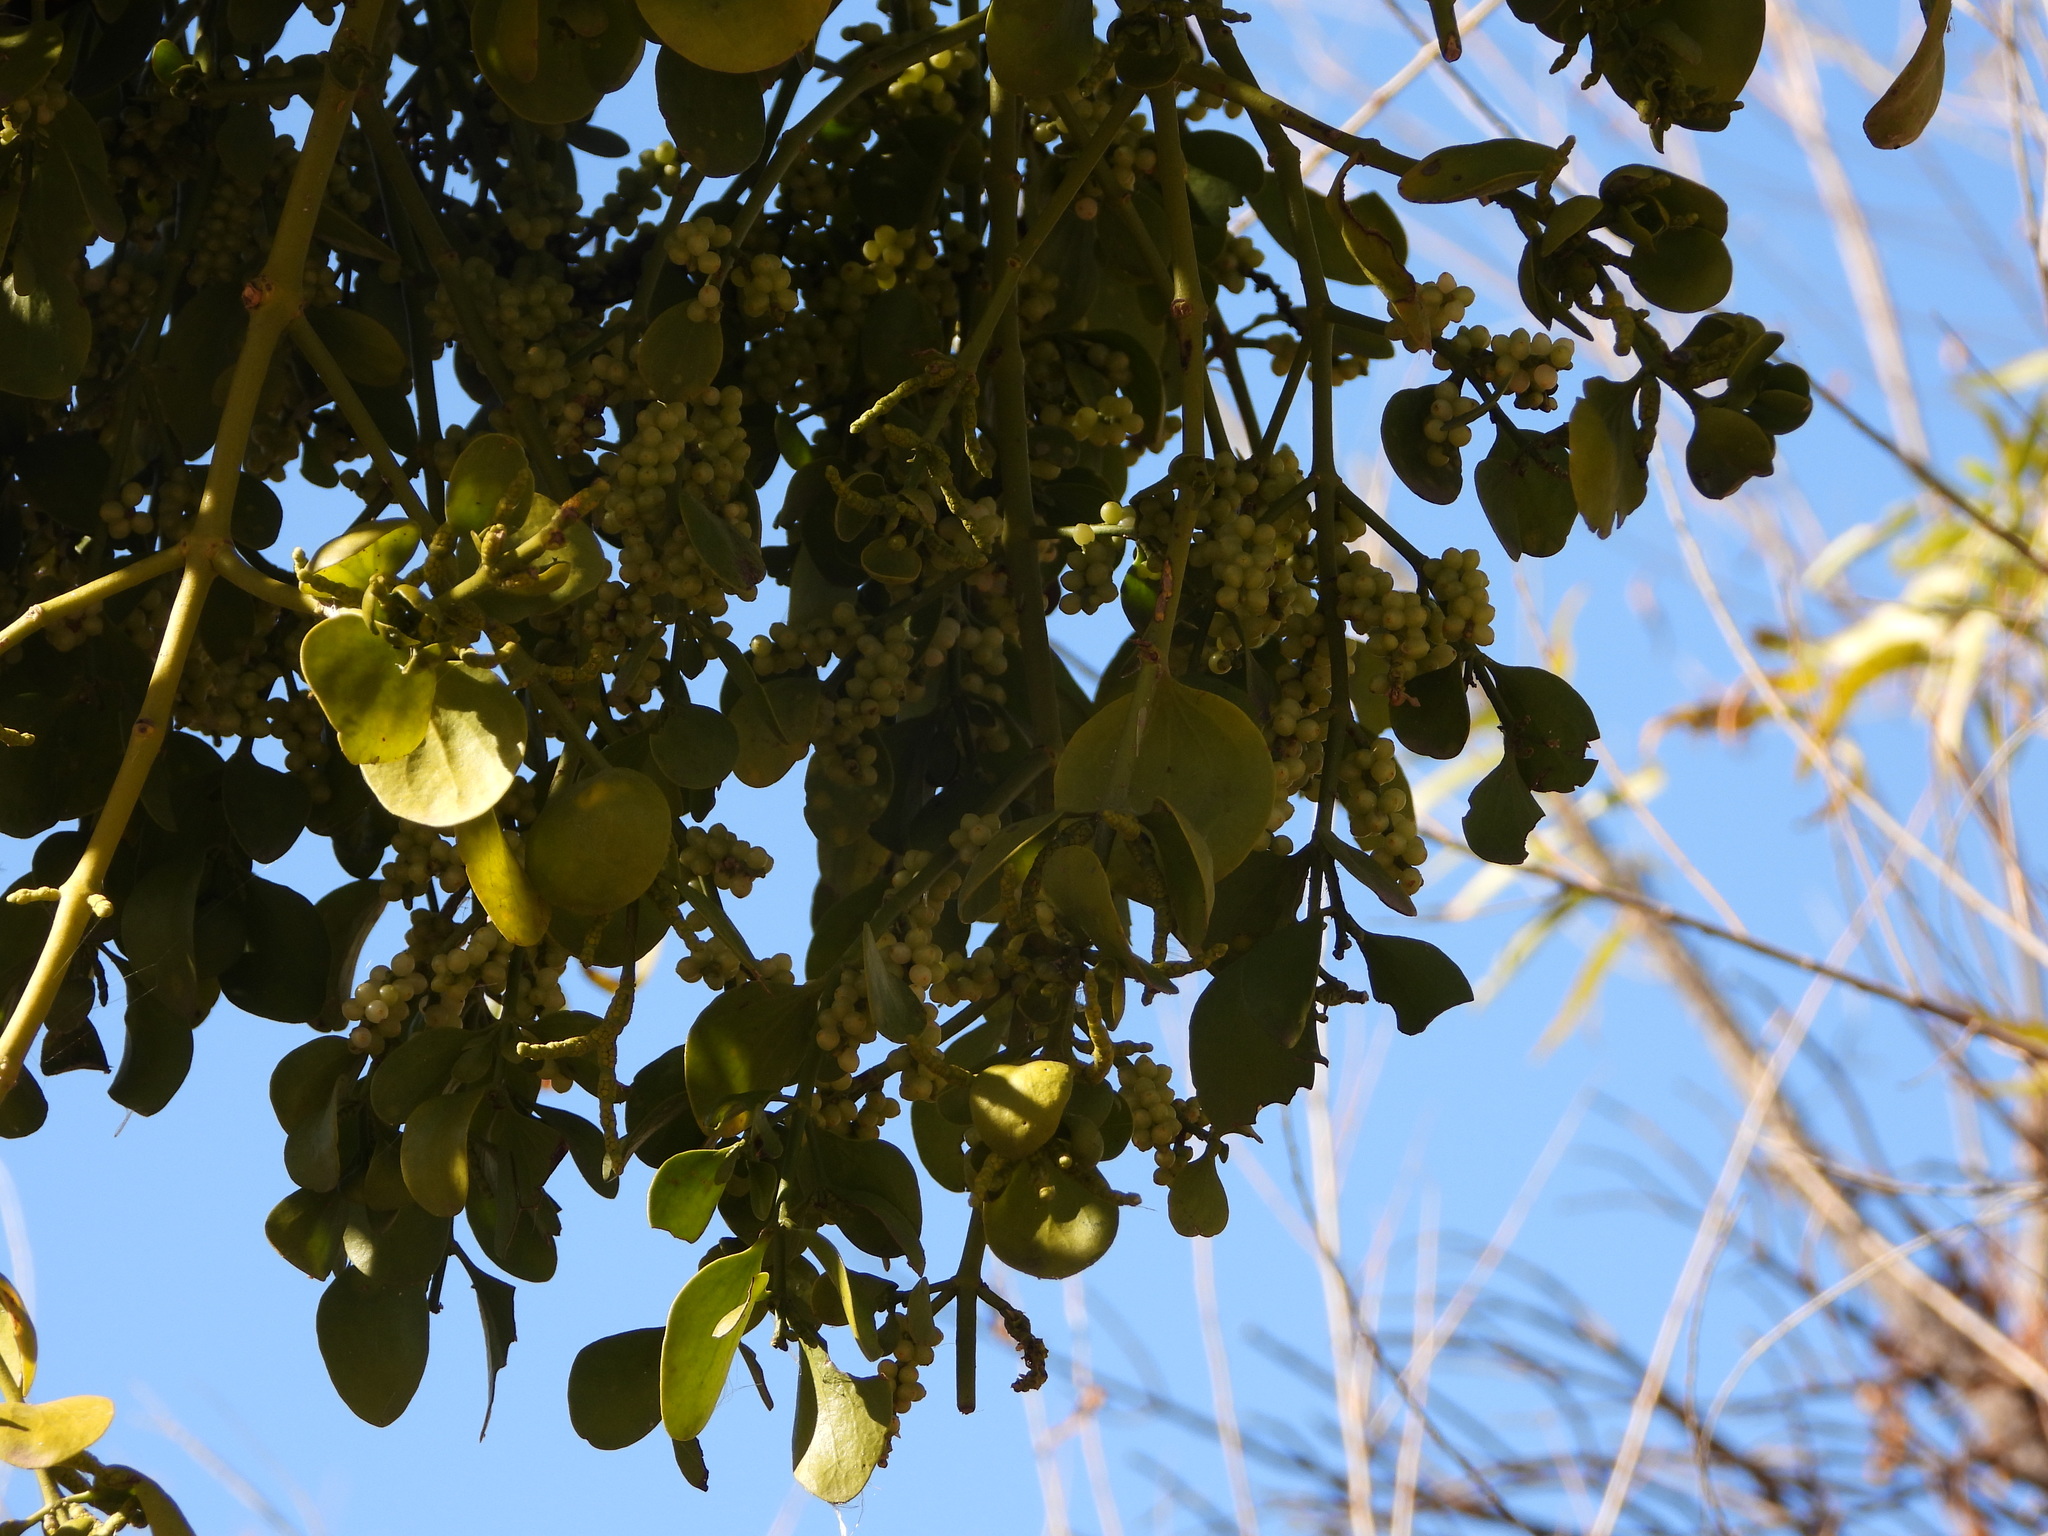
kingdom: Plantae
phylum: Tracheophyta
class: Magnoliopsida
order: Santalales
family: Viscaceae
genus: Phoradendron
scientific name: Phoradendron
